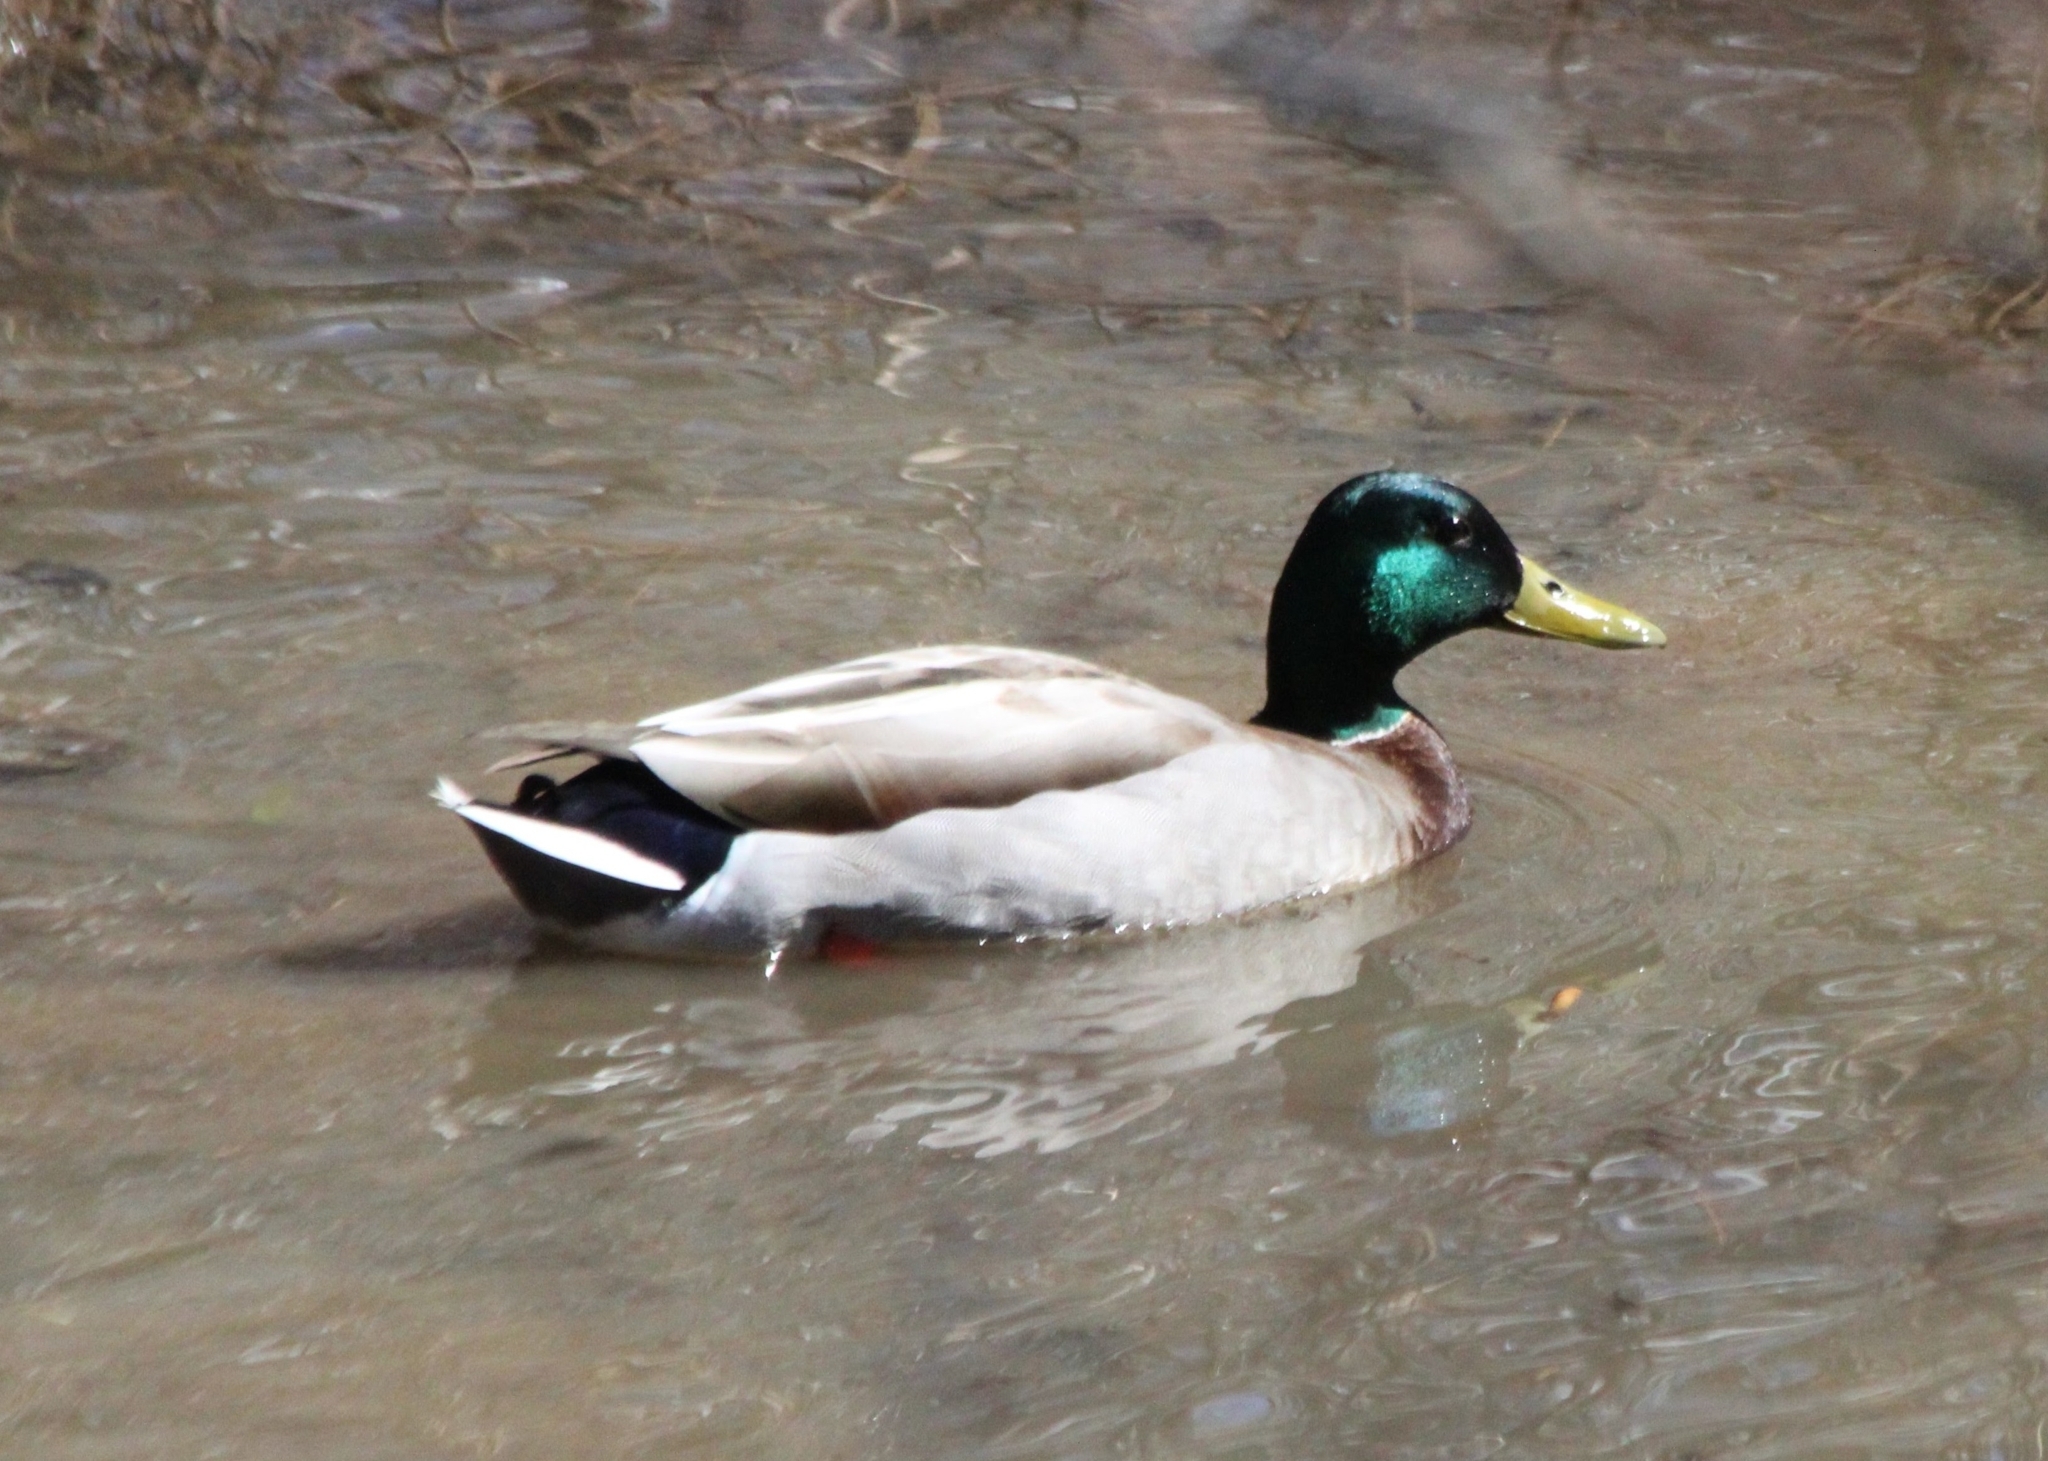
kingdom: Animalia
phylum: Chordata
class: Aves
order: Anseriformes
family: Anatidae
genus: Anas
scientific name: Anas platyrhynchos
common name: Mallard
